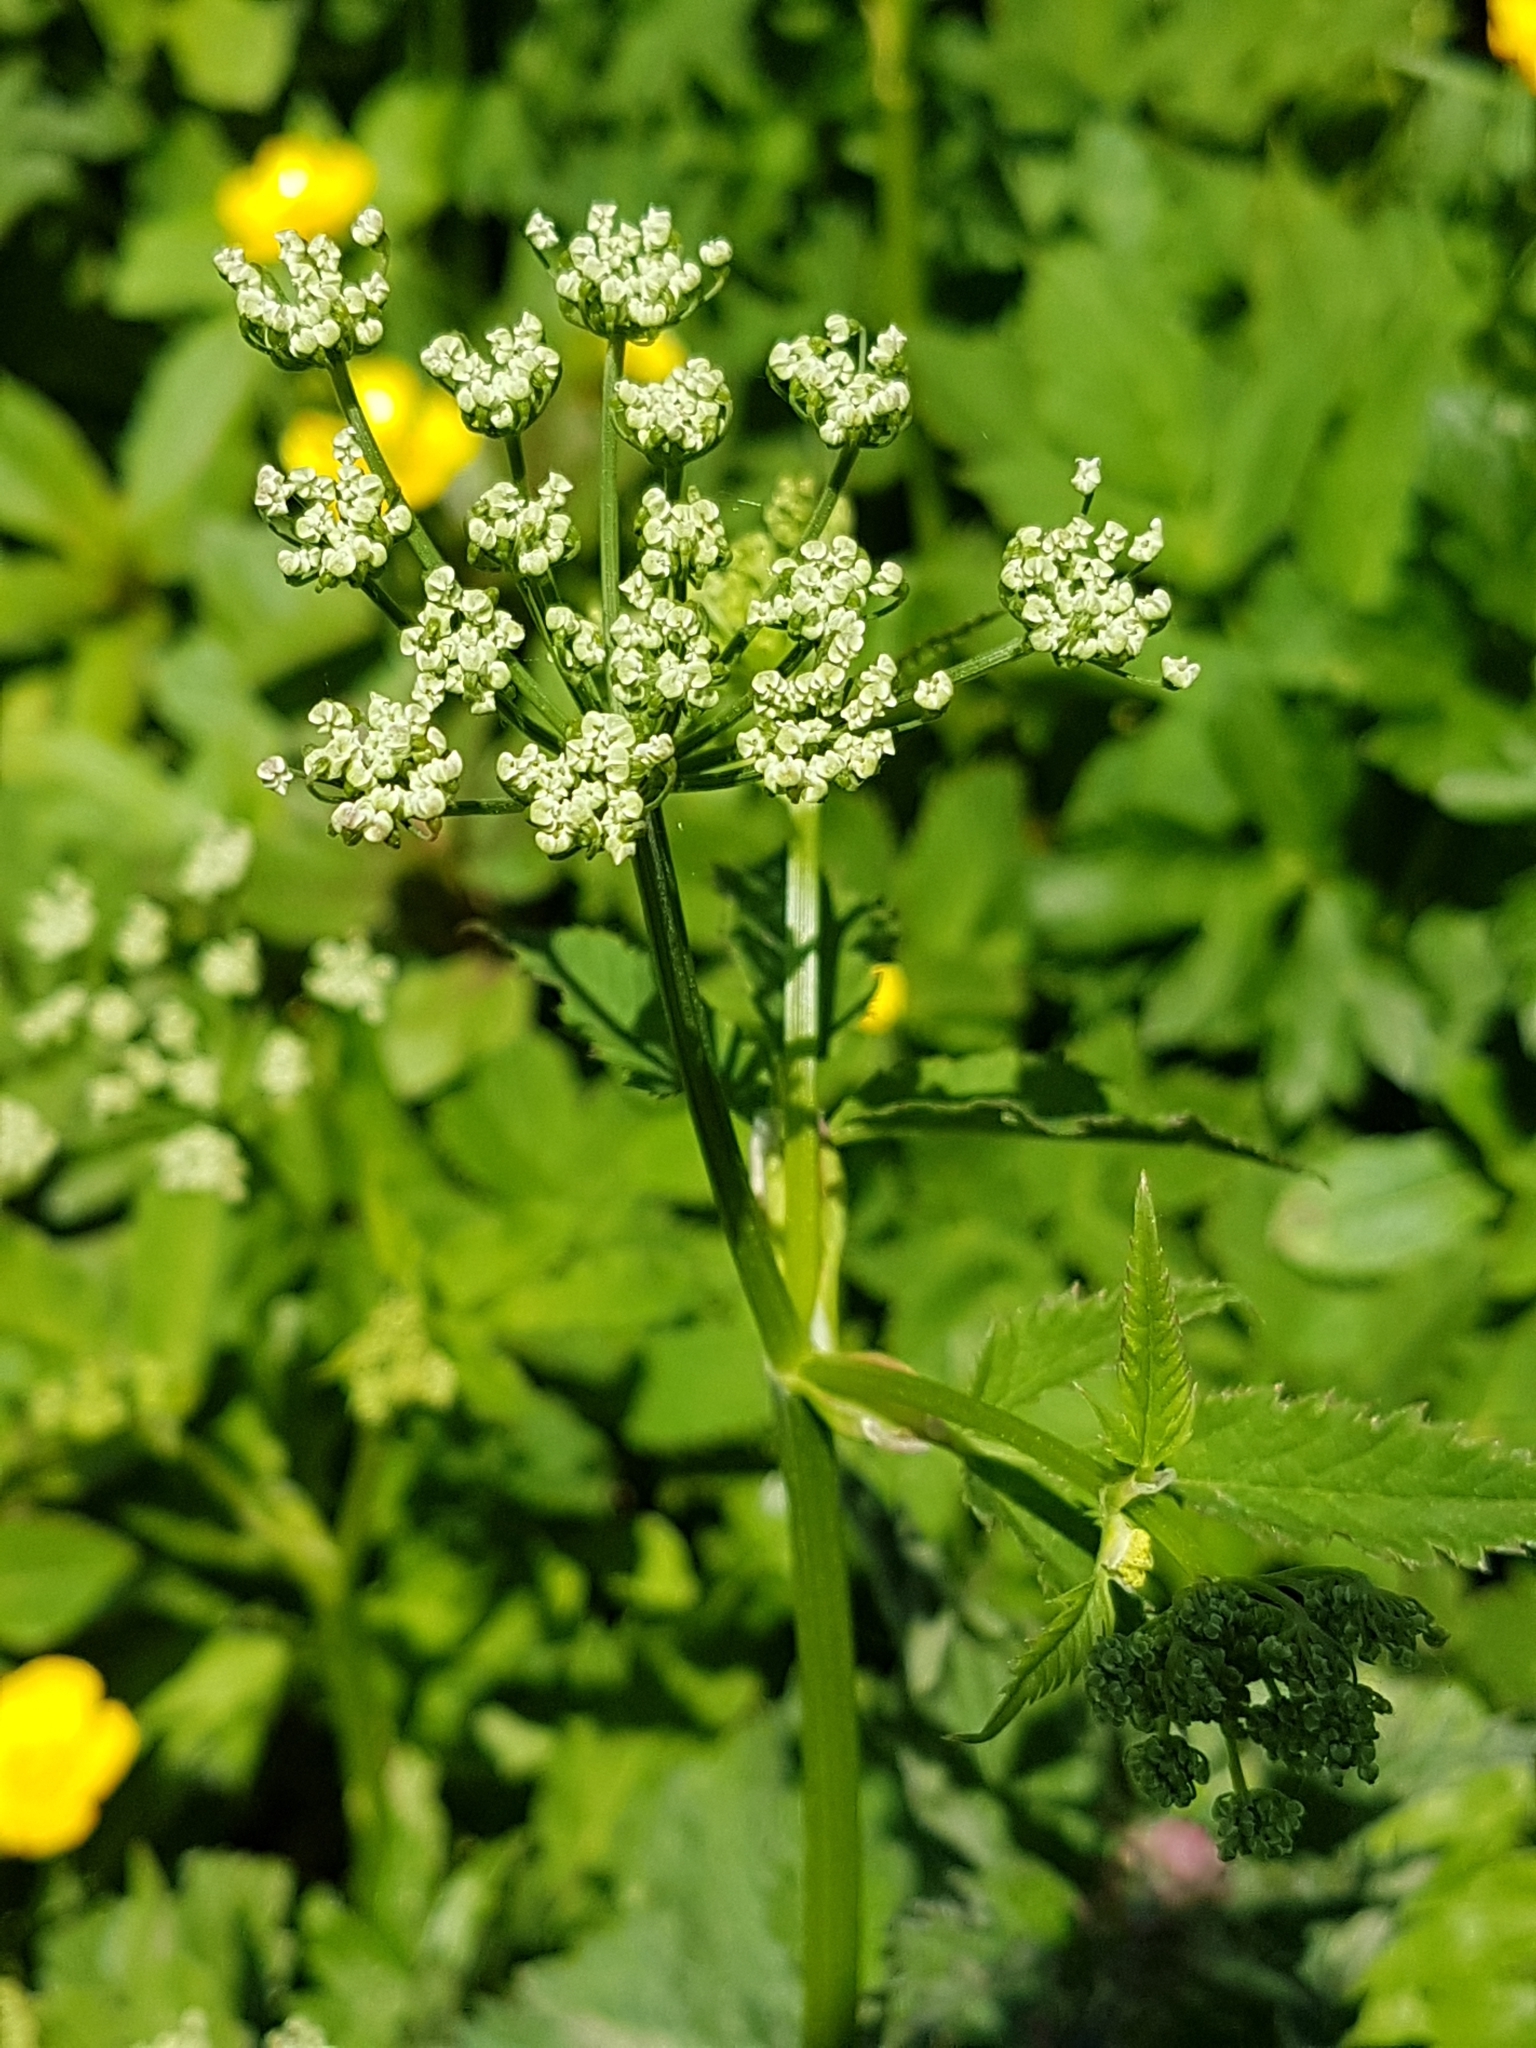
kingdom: Plantae
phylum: Tracheophyta
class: Magnoliopsida
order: Apiales
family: Apiaceae
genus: Aegopodium
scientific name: Aegopodium podagraria
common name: Ground-elder
